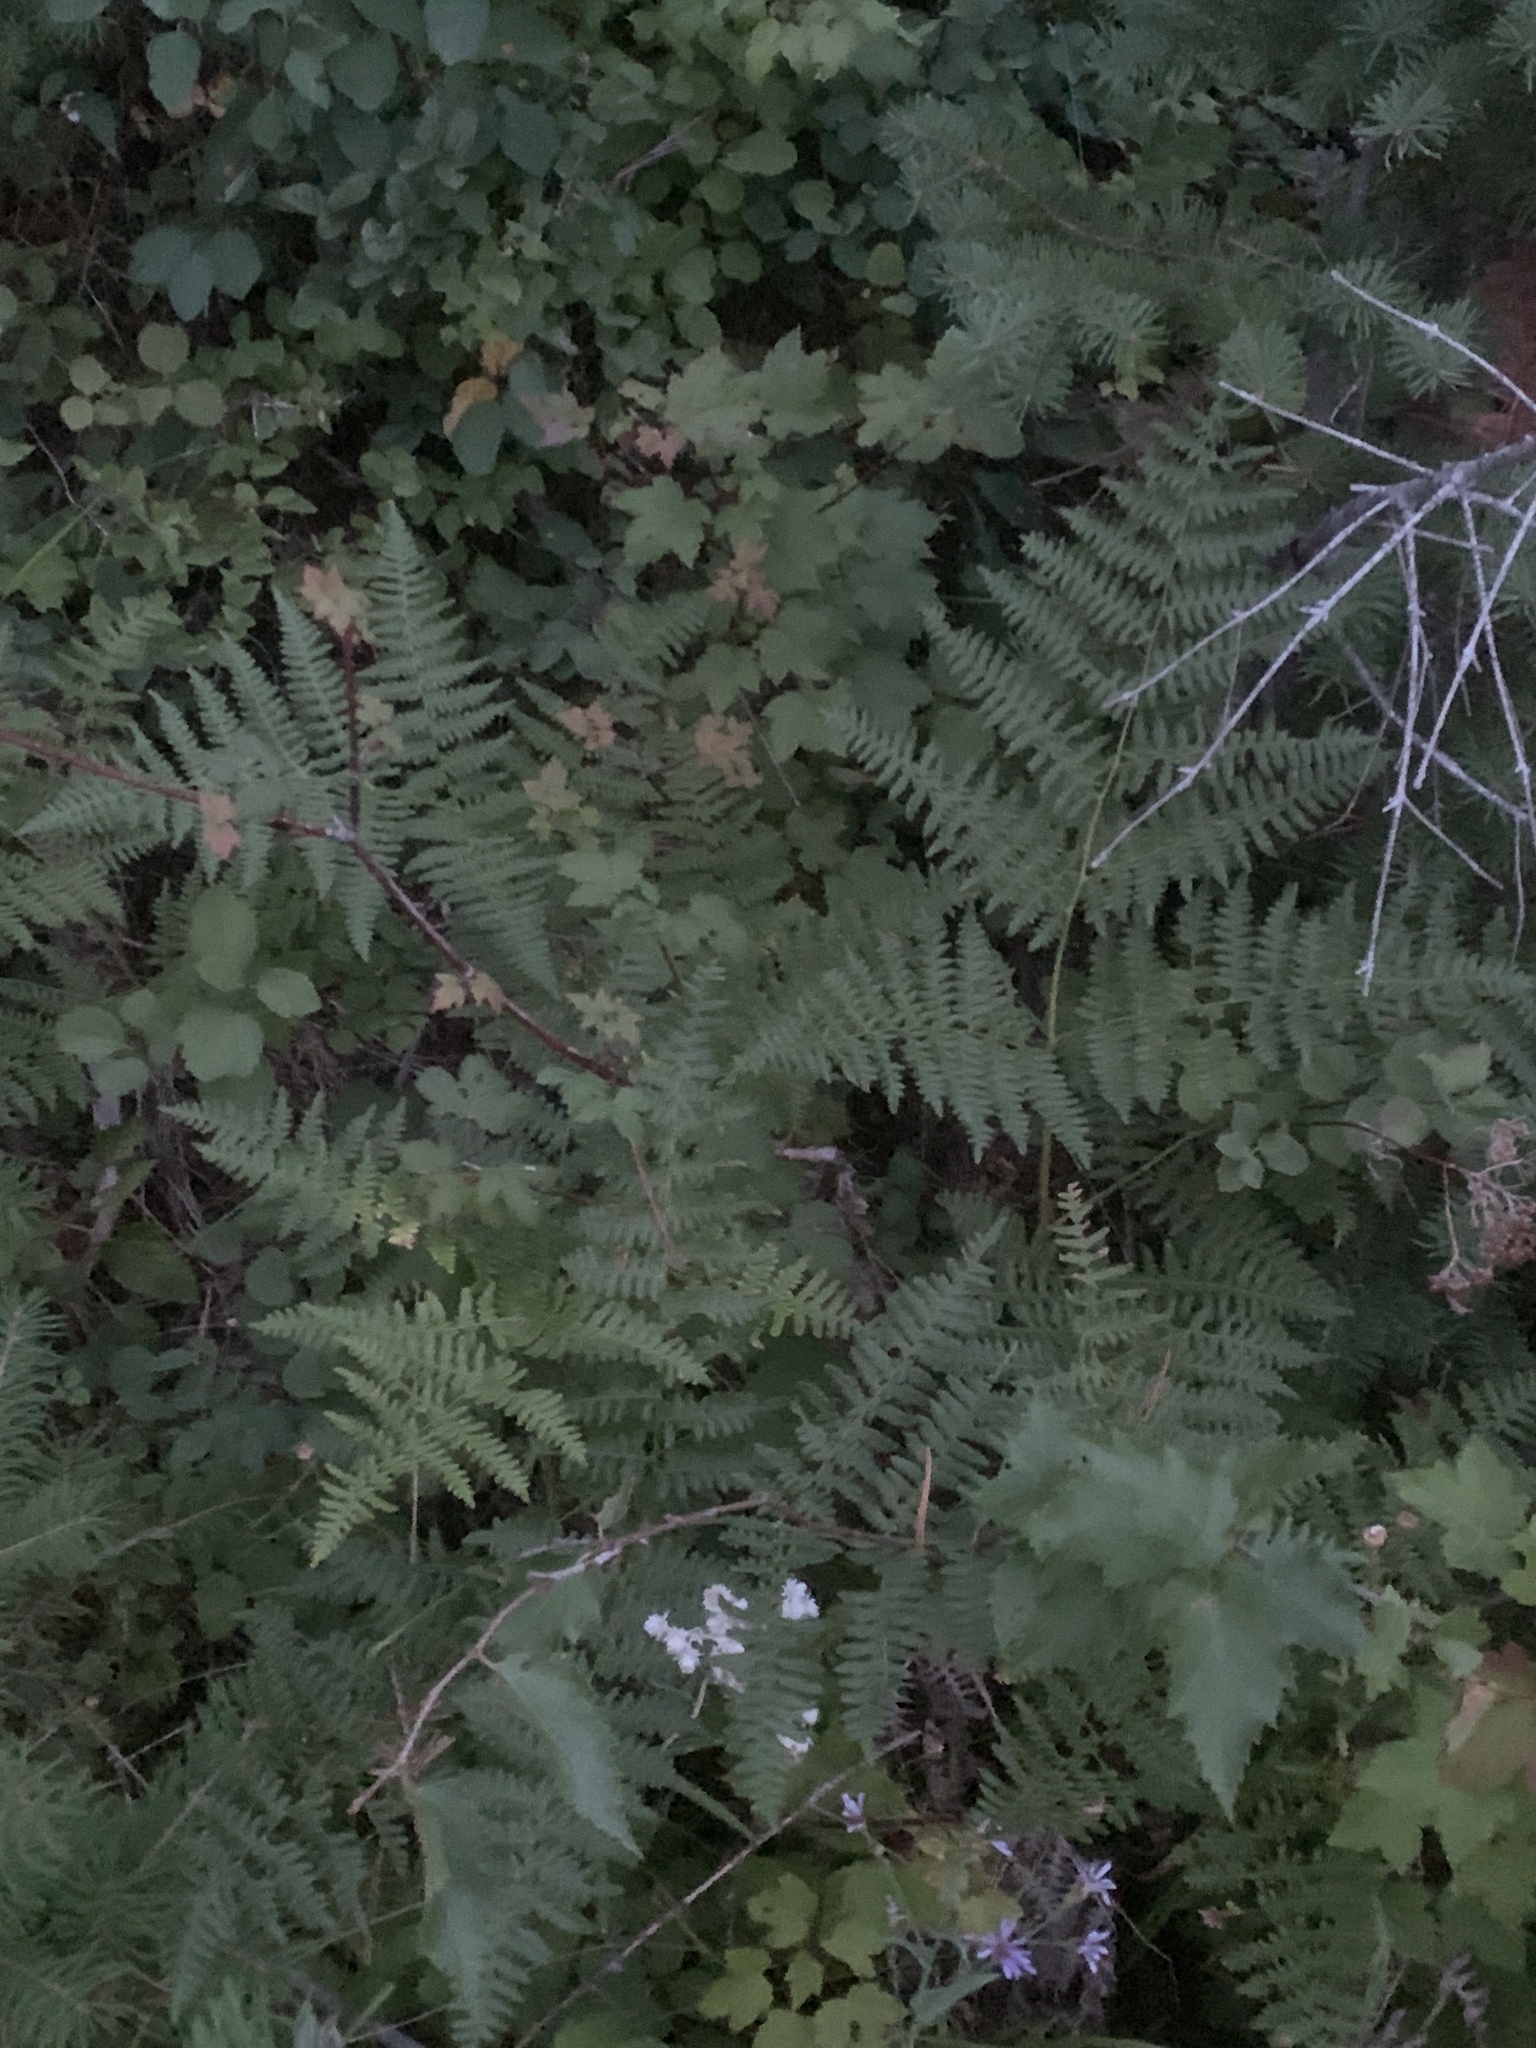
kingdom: Plantae
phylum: Tracheophyta
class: Polypodiopsida
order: Polypodiales
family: Dennstaedtiaceae
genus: Pteridium
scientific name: Pteridium aquilinum
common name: Bracken
